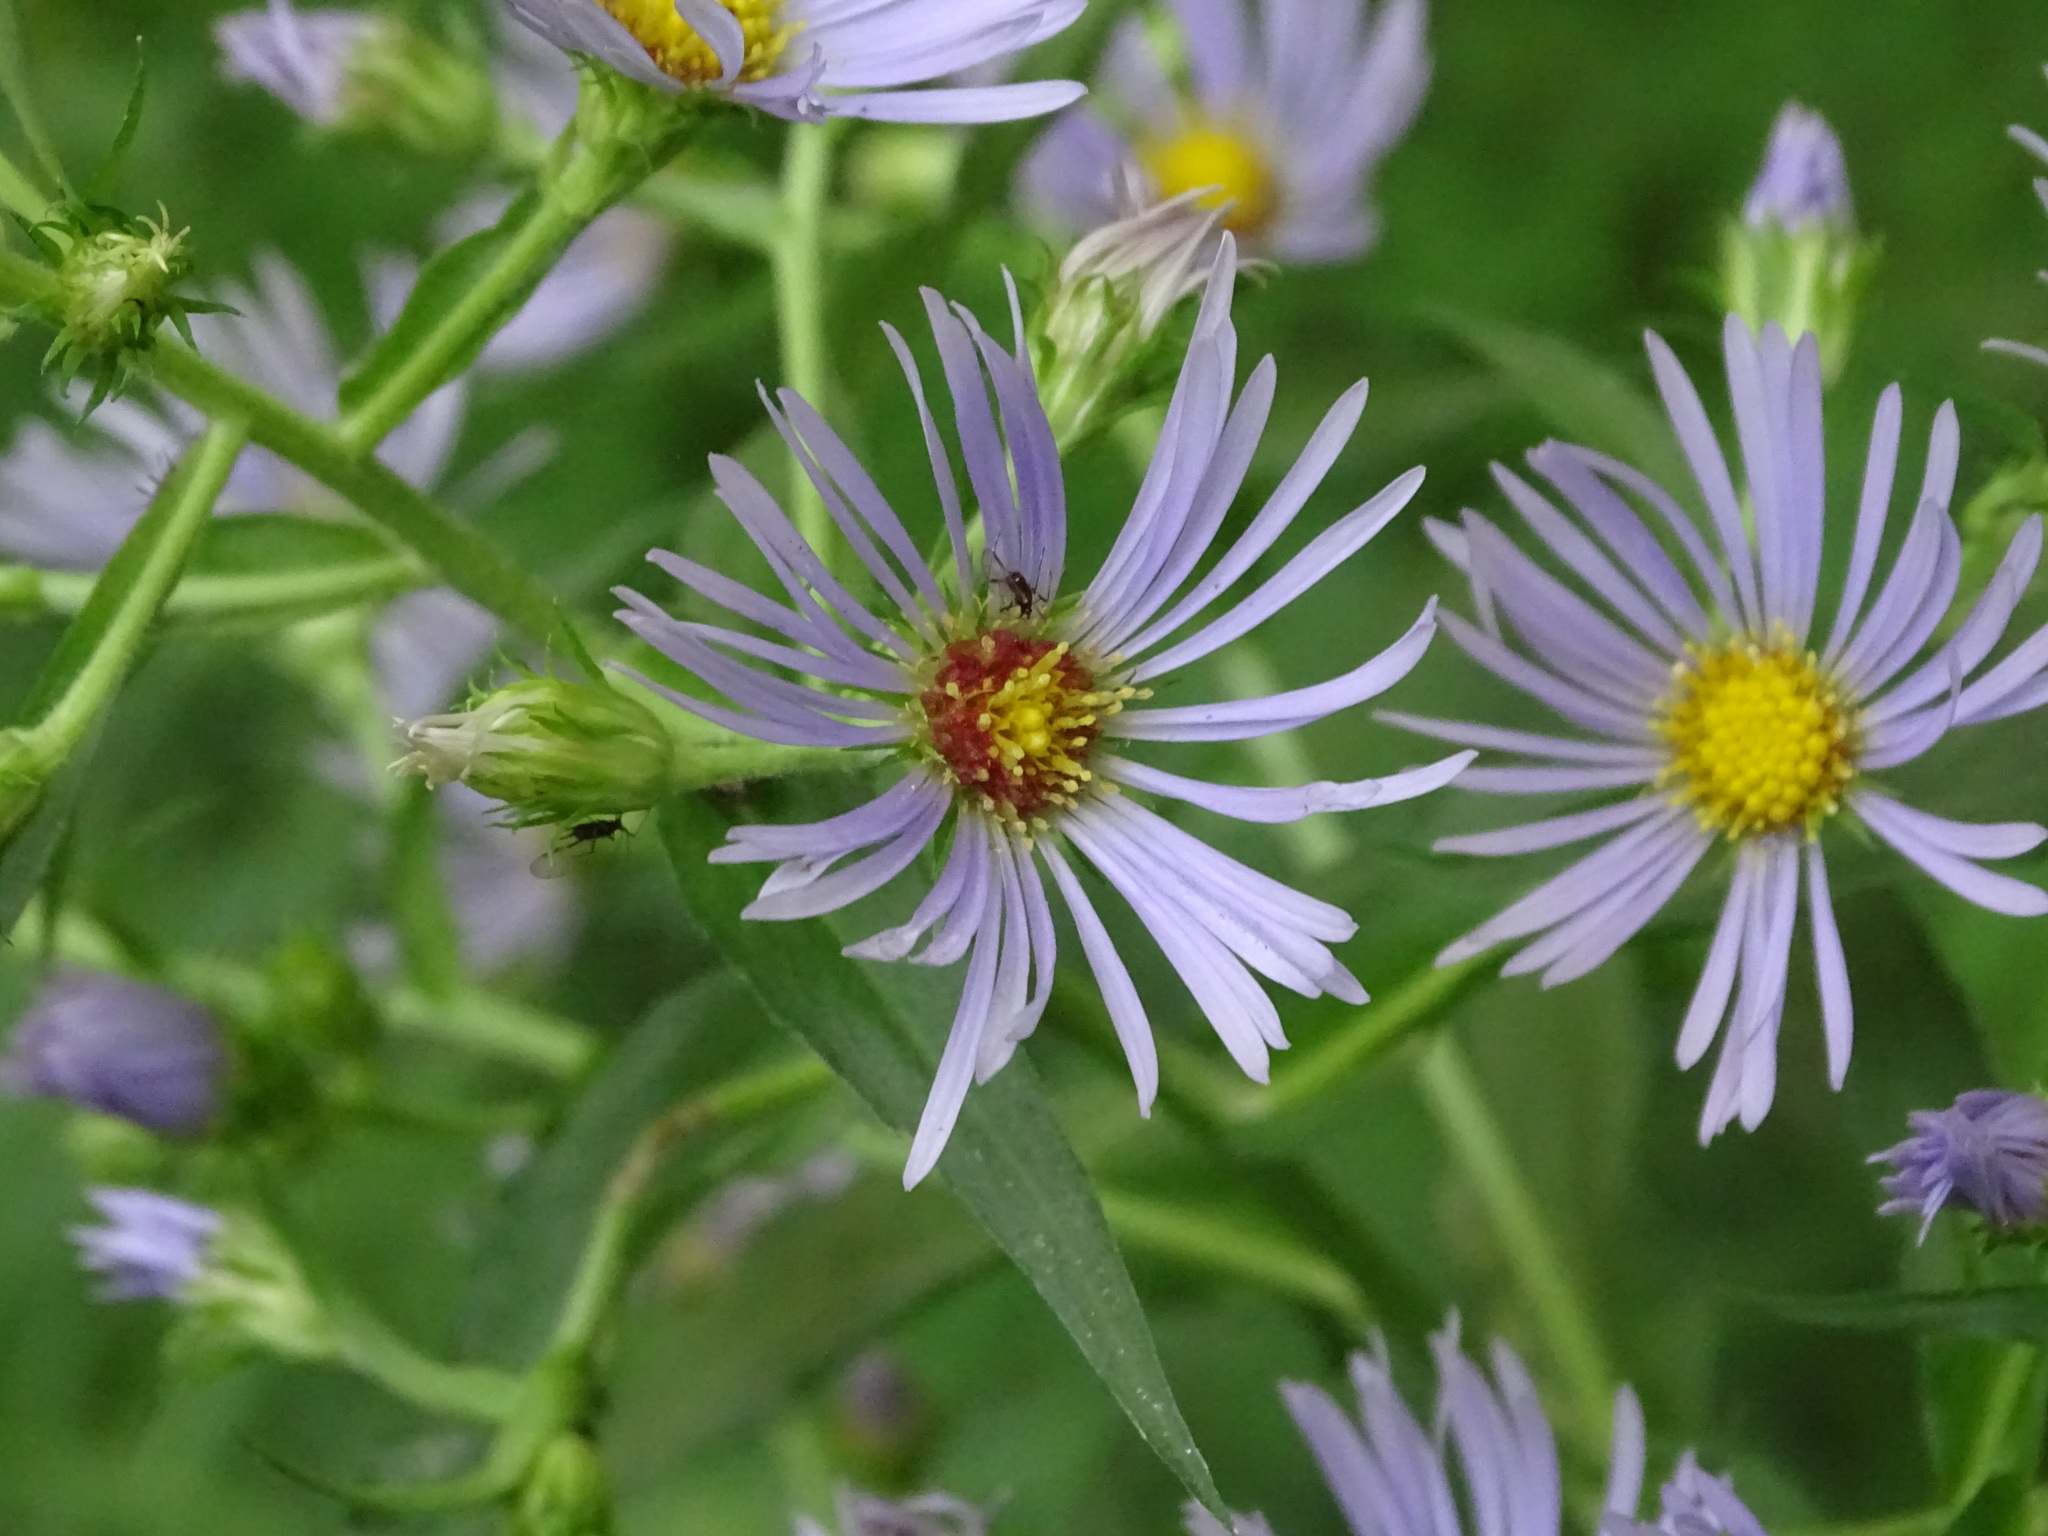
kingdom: Plantae
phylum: Tracheophyta
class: Magnoliopsida
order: Asterales
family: Asteraceae
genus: Symphyotrichum
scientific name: Symphyotrichum puniceum
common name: Bog aster
